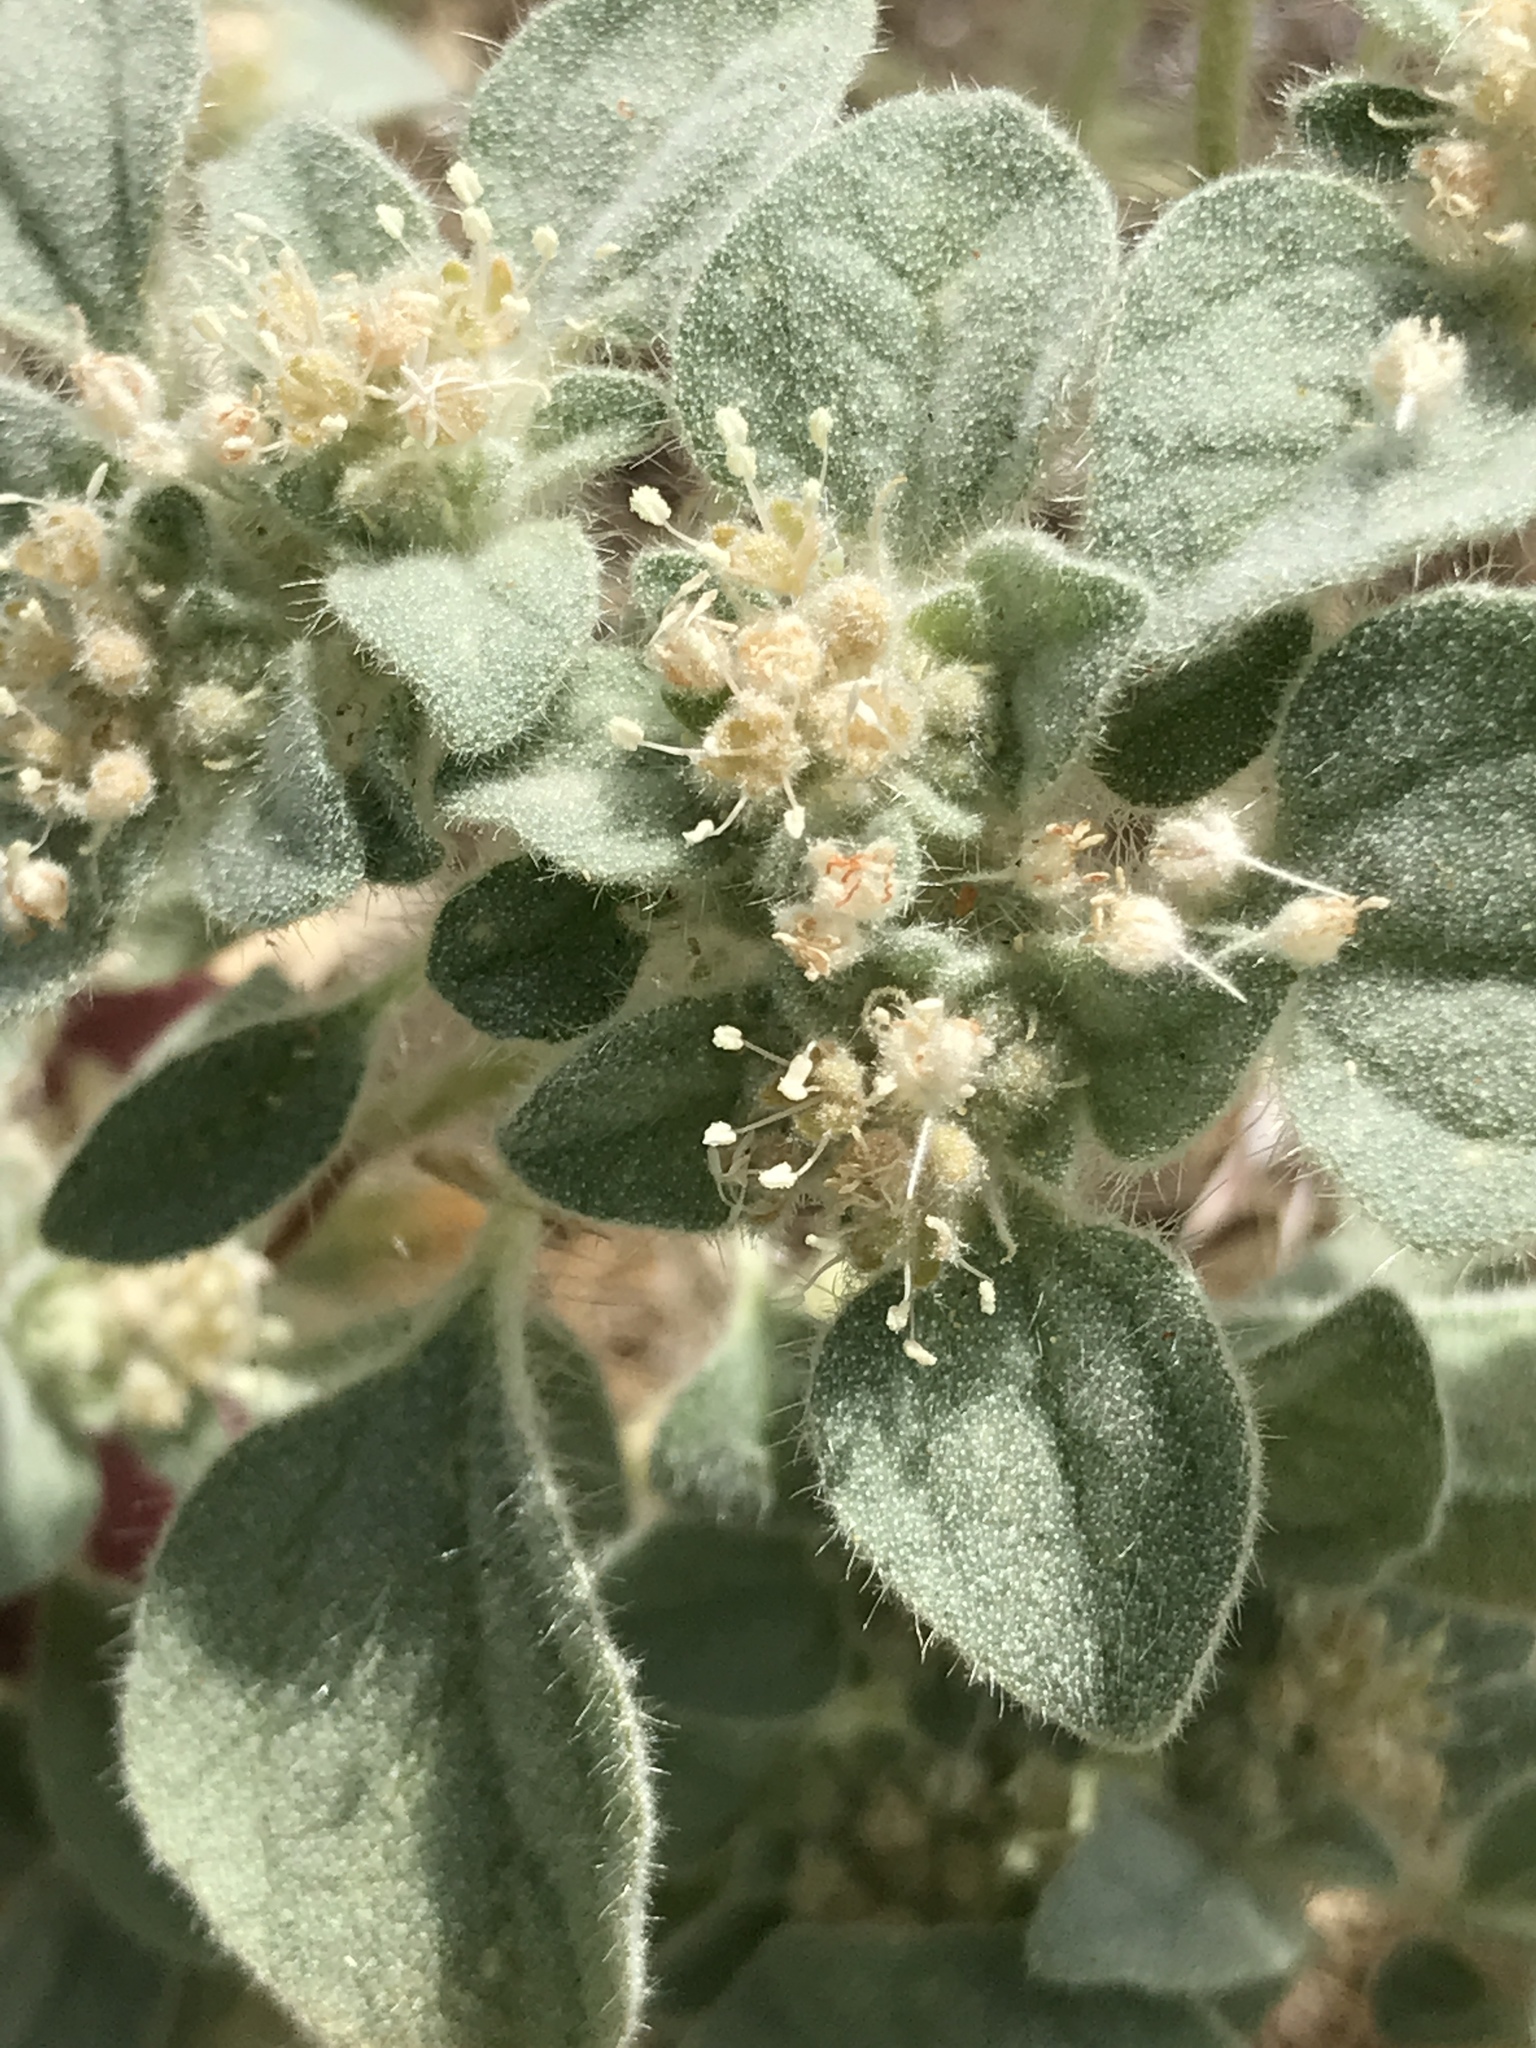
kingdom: Plantae
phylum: Tracheophyta
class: Magnoliopsida
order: Malpighiales
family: Euphorbiaceae
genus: Croton
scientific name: Croton setiger
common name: Dove weed
